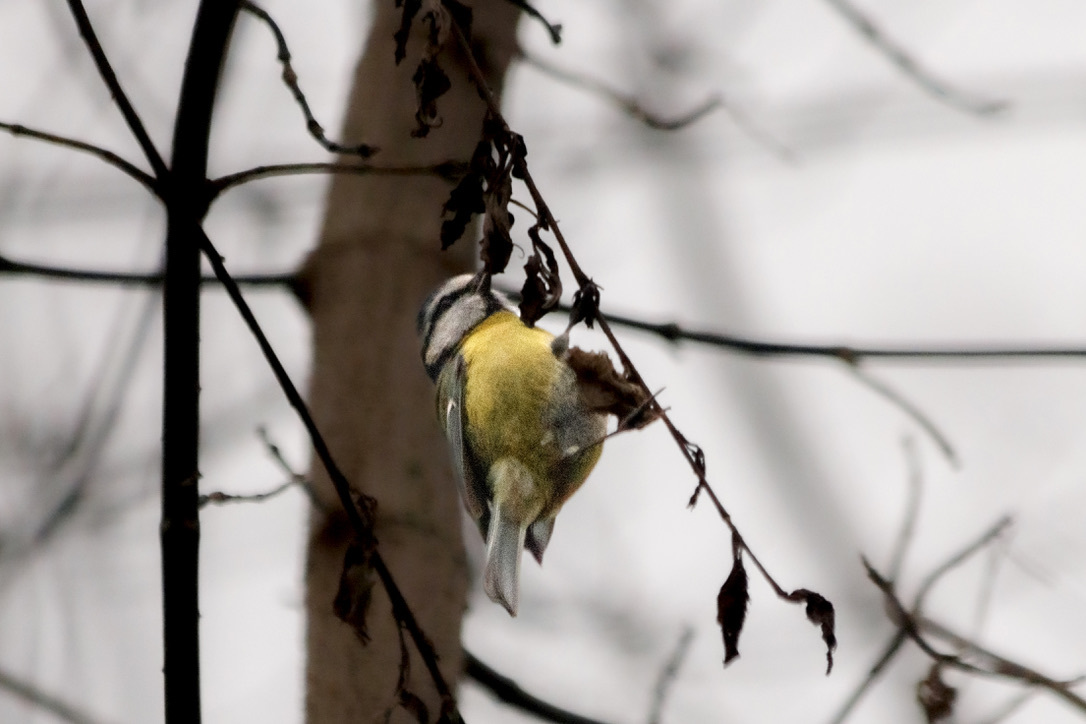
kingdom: Animalia
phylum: Chordata
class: Aves
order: Passeriformes
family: Paridae
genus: Cyanistes
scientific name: Cyanistes caeruleus
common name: Eurasian blue tit
